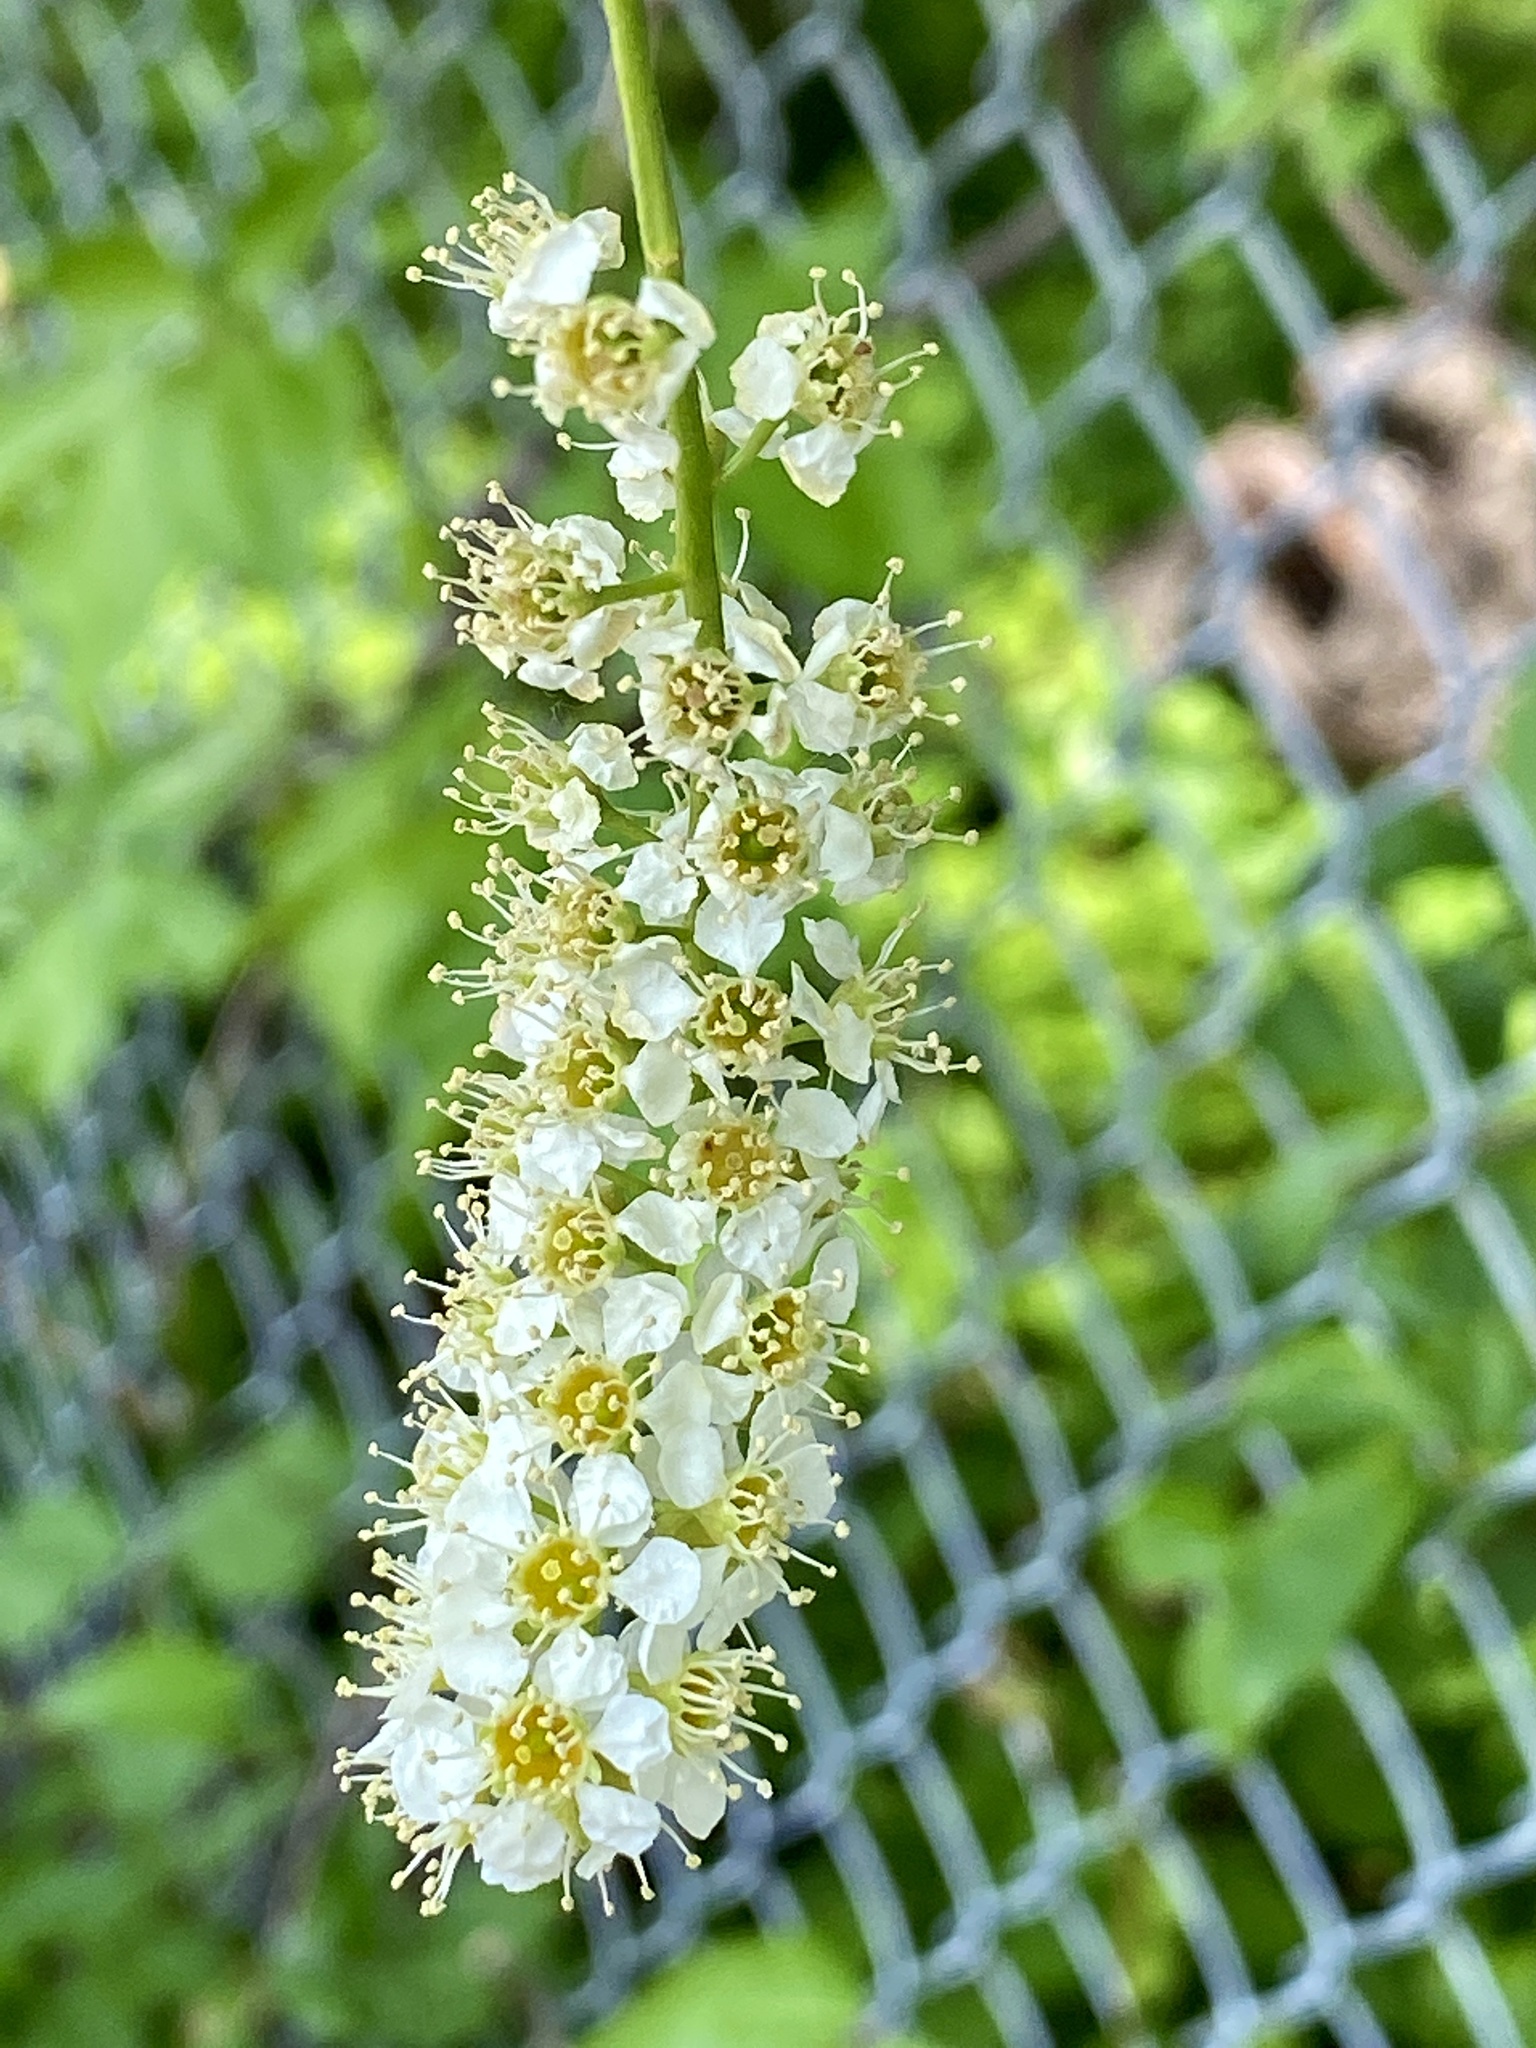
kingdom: Plantae
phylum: Tracheophyta
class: Magnoliopsida
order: Rosales
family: Rosaceae
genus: Prunus
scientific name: Prunus serotina
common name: Black cherry
